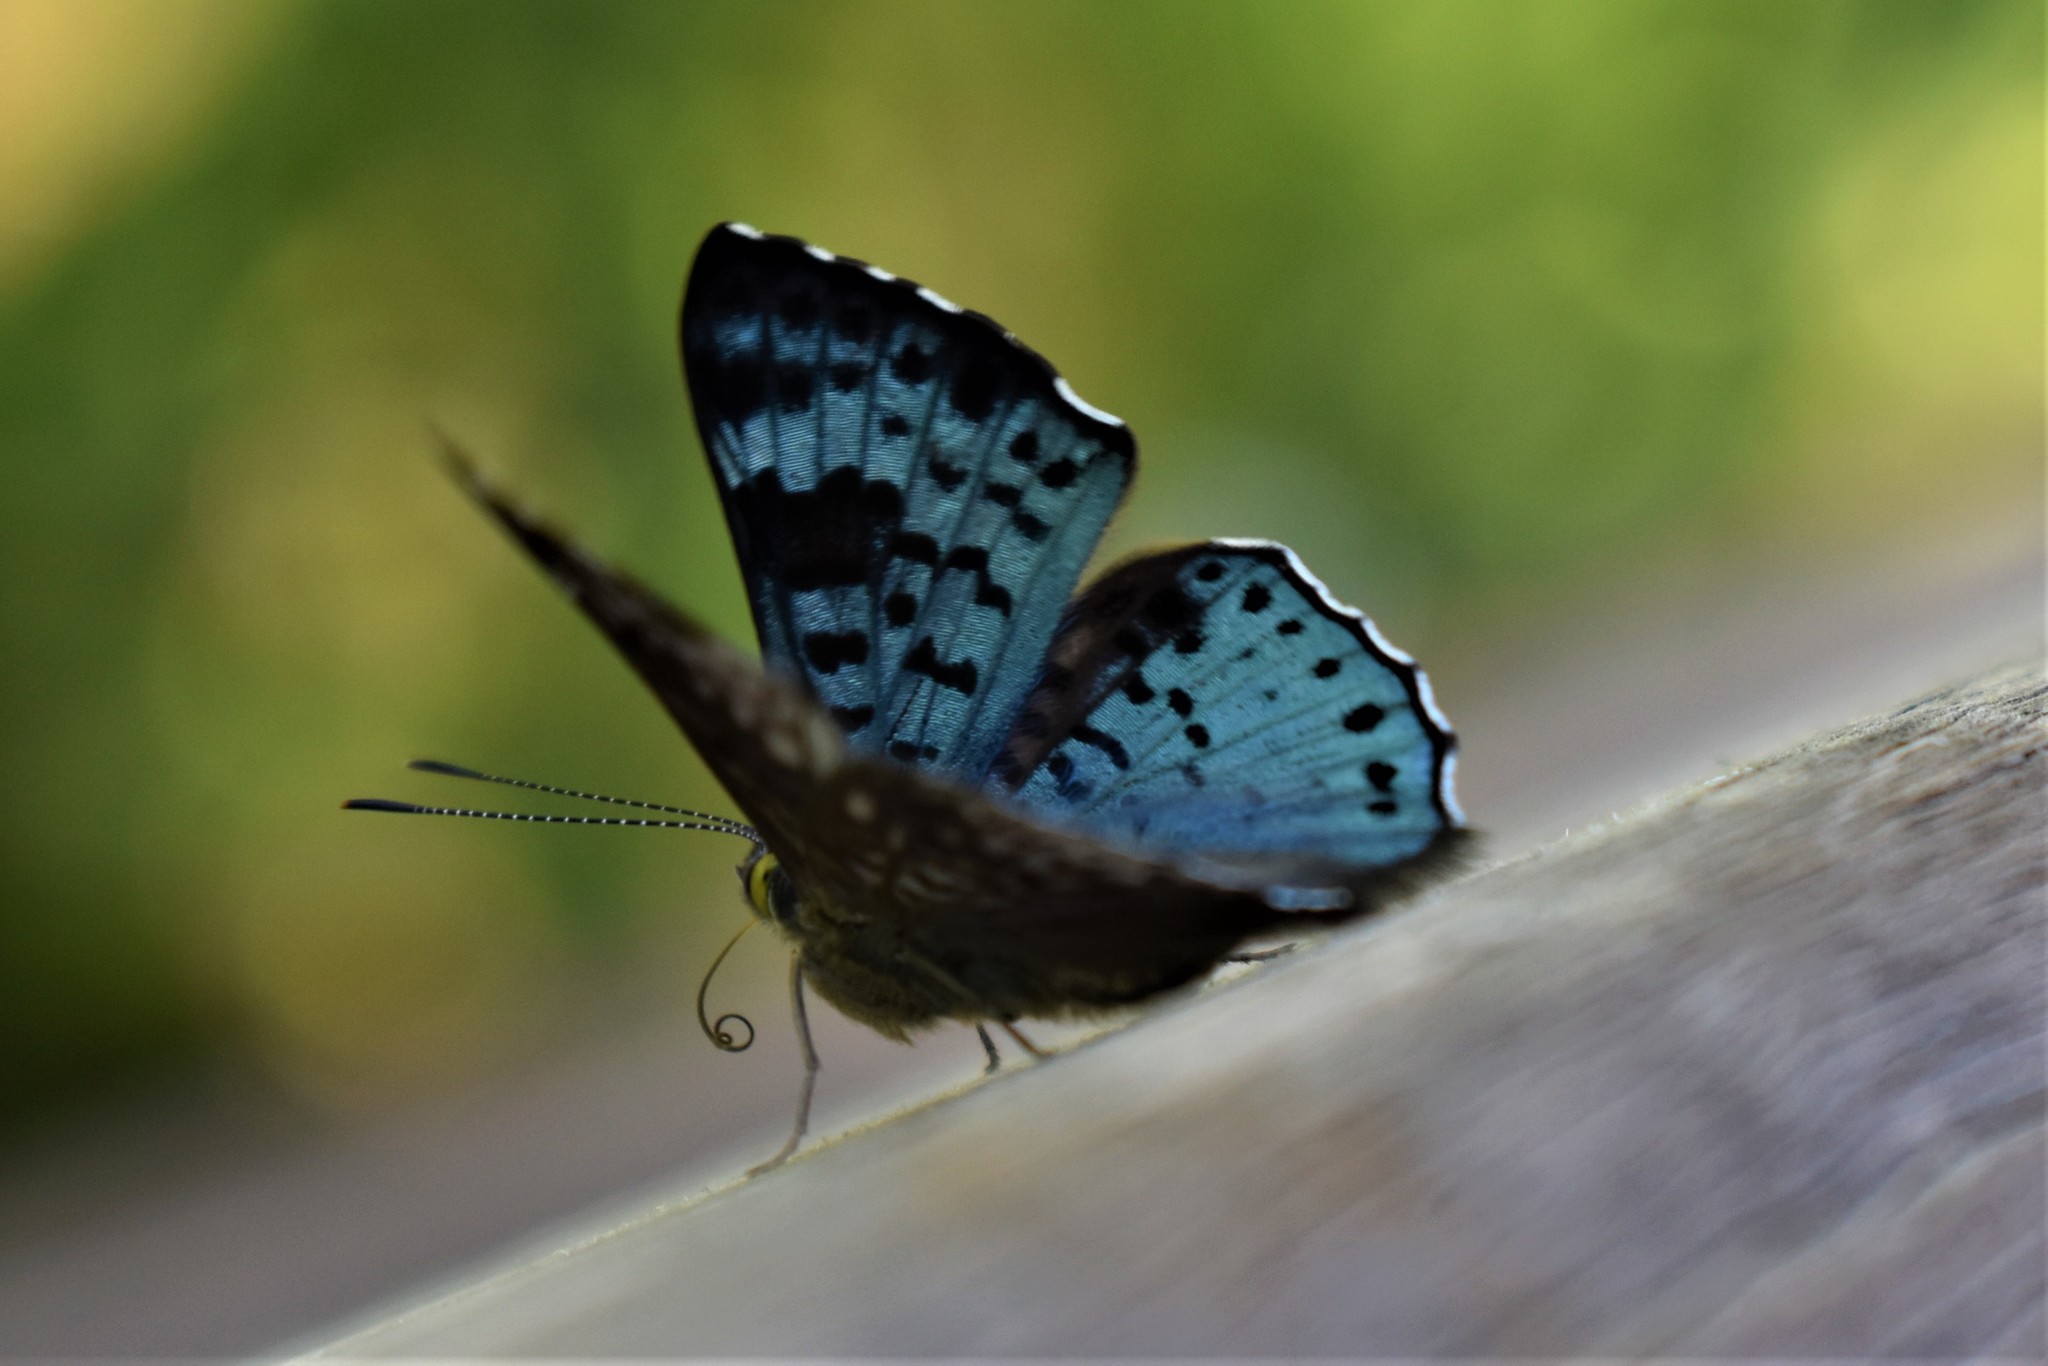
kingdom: Animalia
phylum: Arthropoda
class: Insecta
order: Lepidoptera
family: Riodinidae
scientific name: Riodinidae
